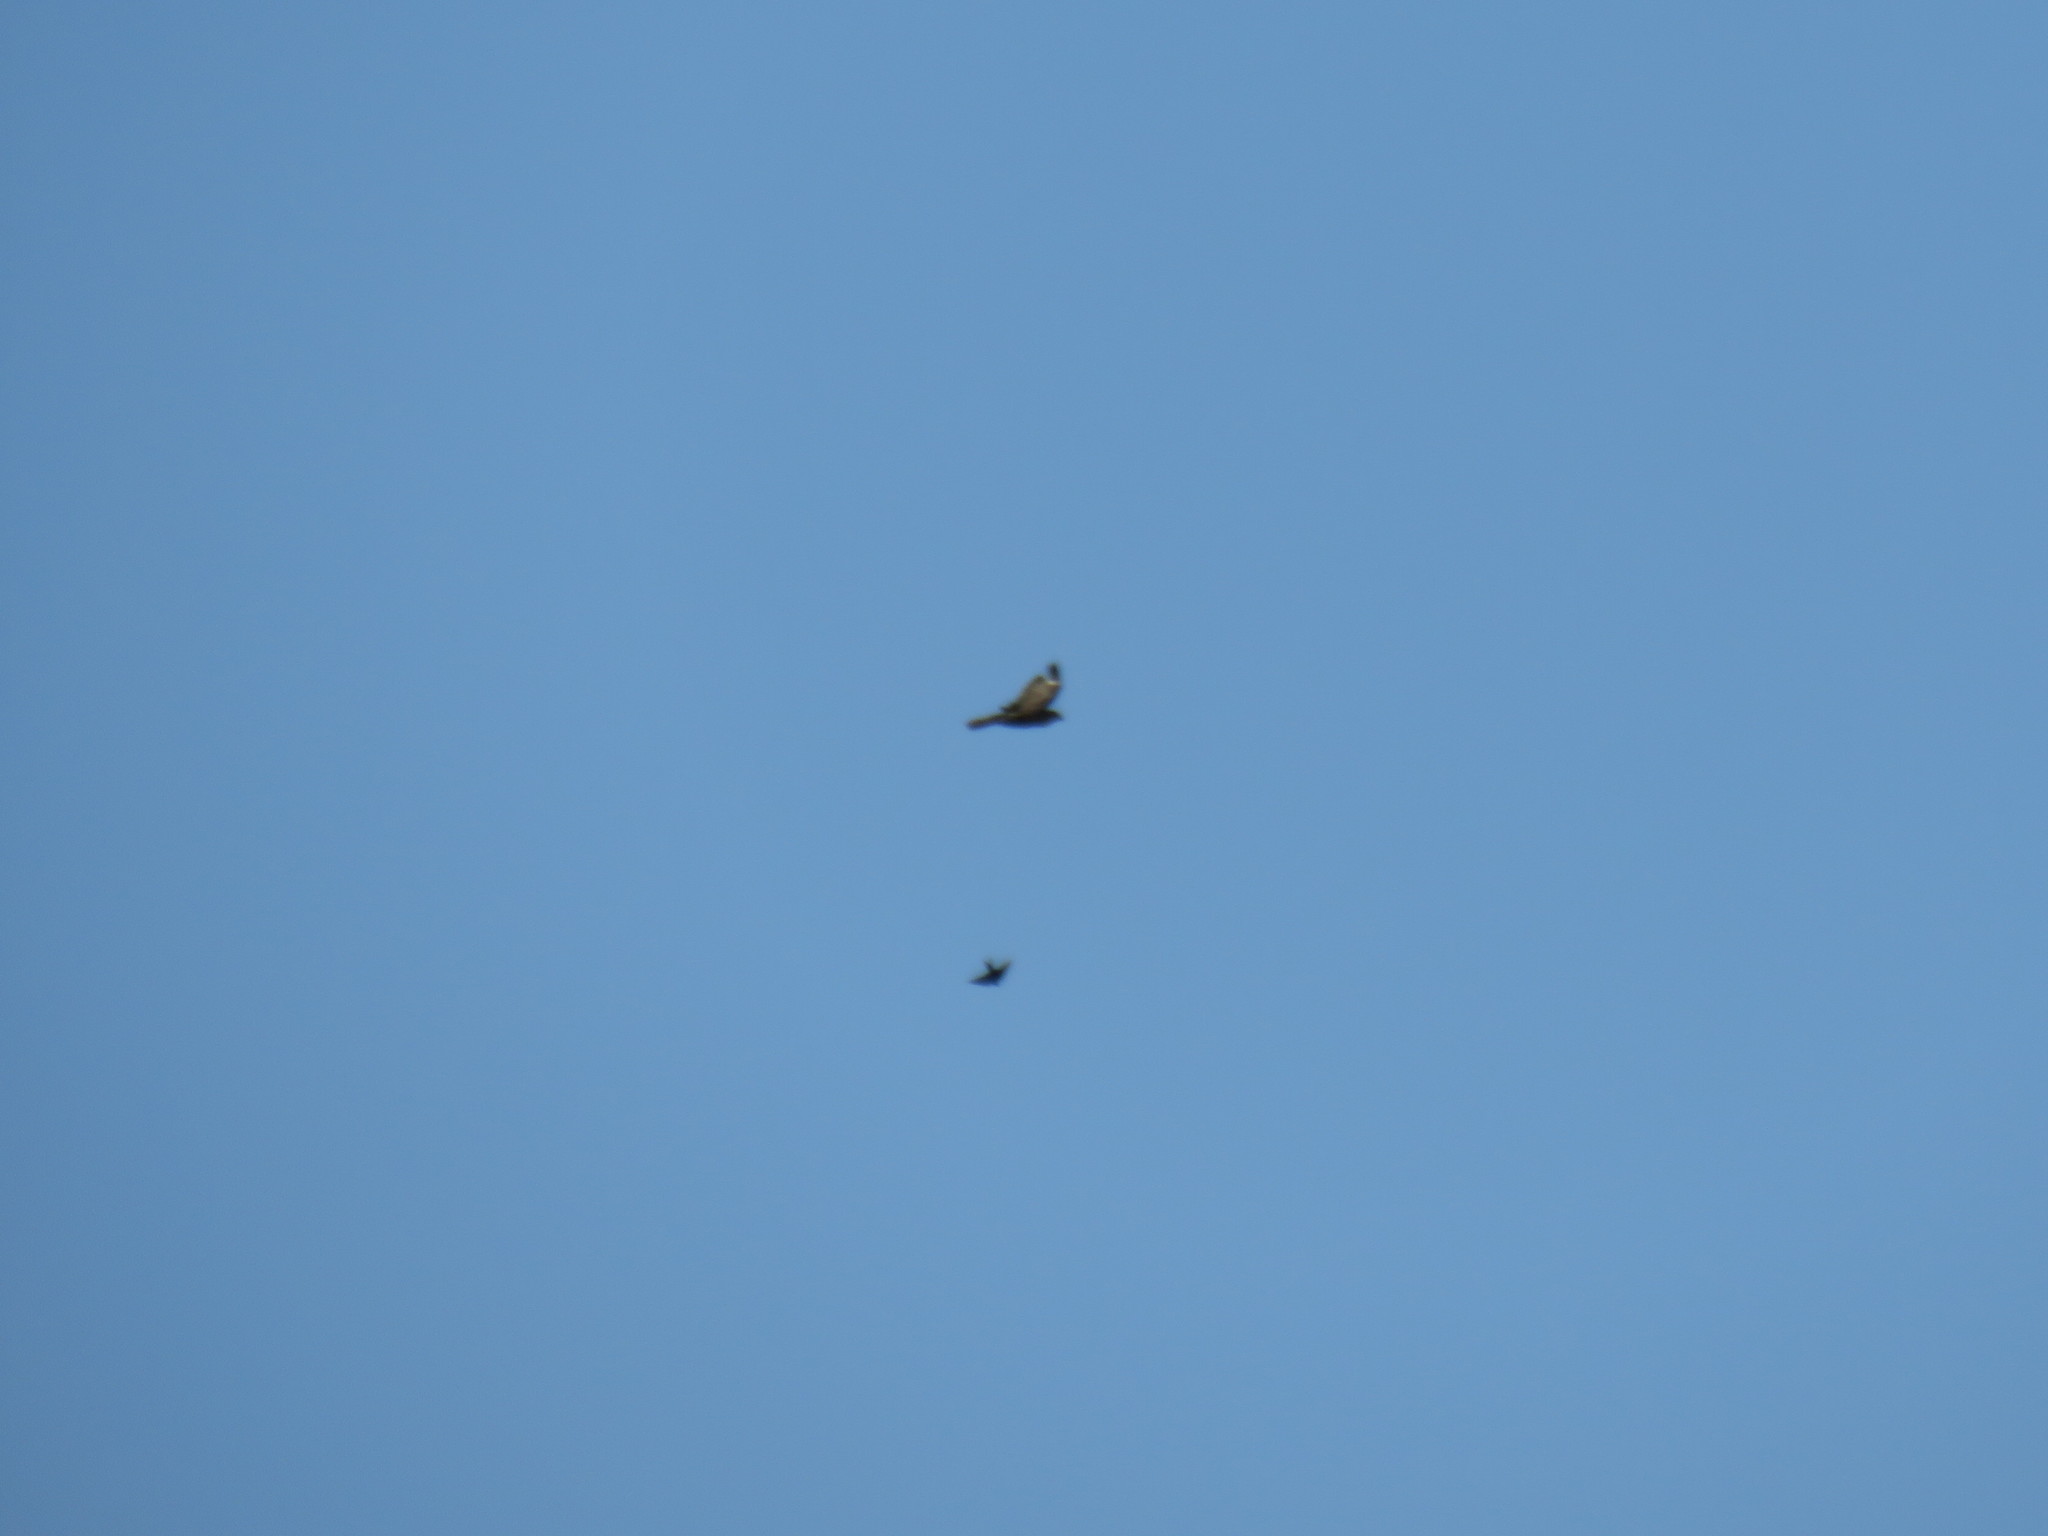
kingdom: Animalia
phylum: Chordata
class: Aves
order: Accipitriformes
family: Accipitridae
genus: Buteo
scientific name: Buteo buteo
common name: Common buzzard
